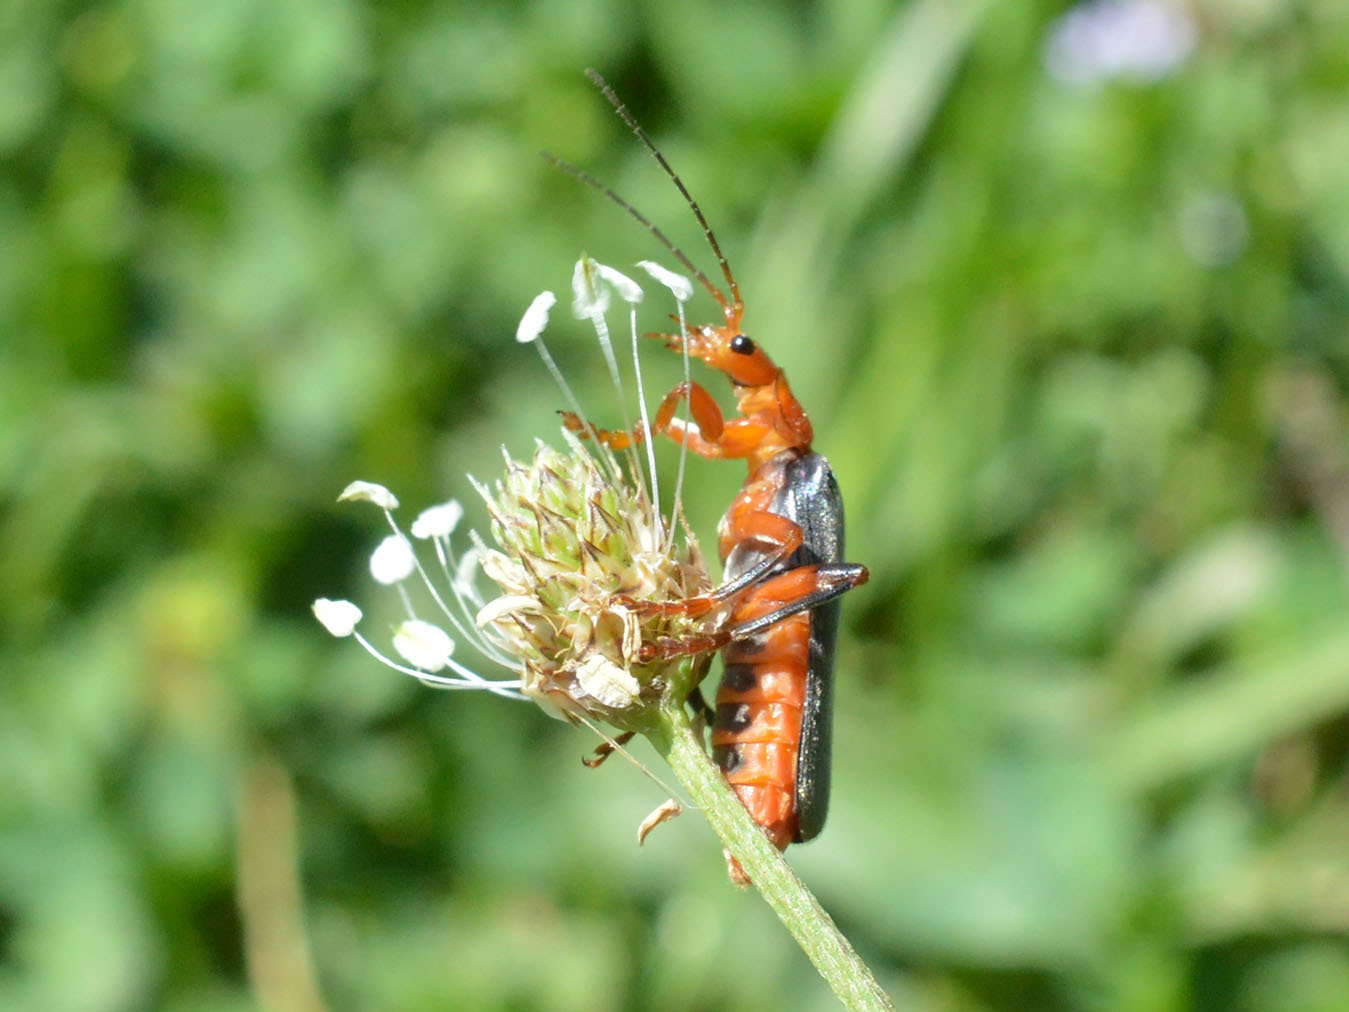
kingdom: Animalia
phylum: Arthropoda
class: Insecta
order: Coleoptera
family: Cantharidae
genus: Cantharis
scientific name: Cantharis livida
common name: Livid soldier beetle
